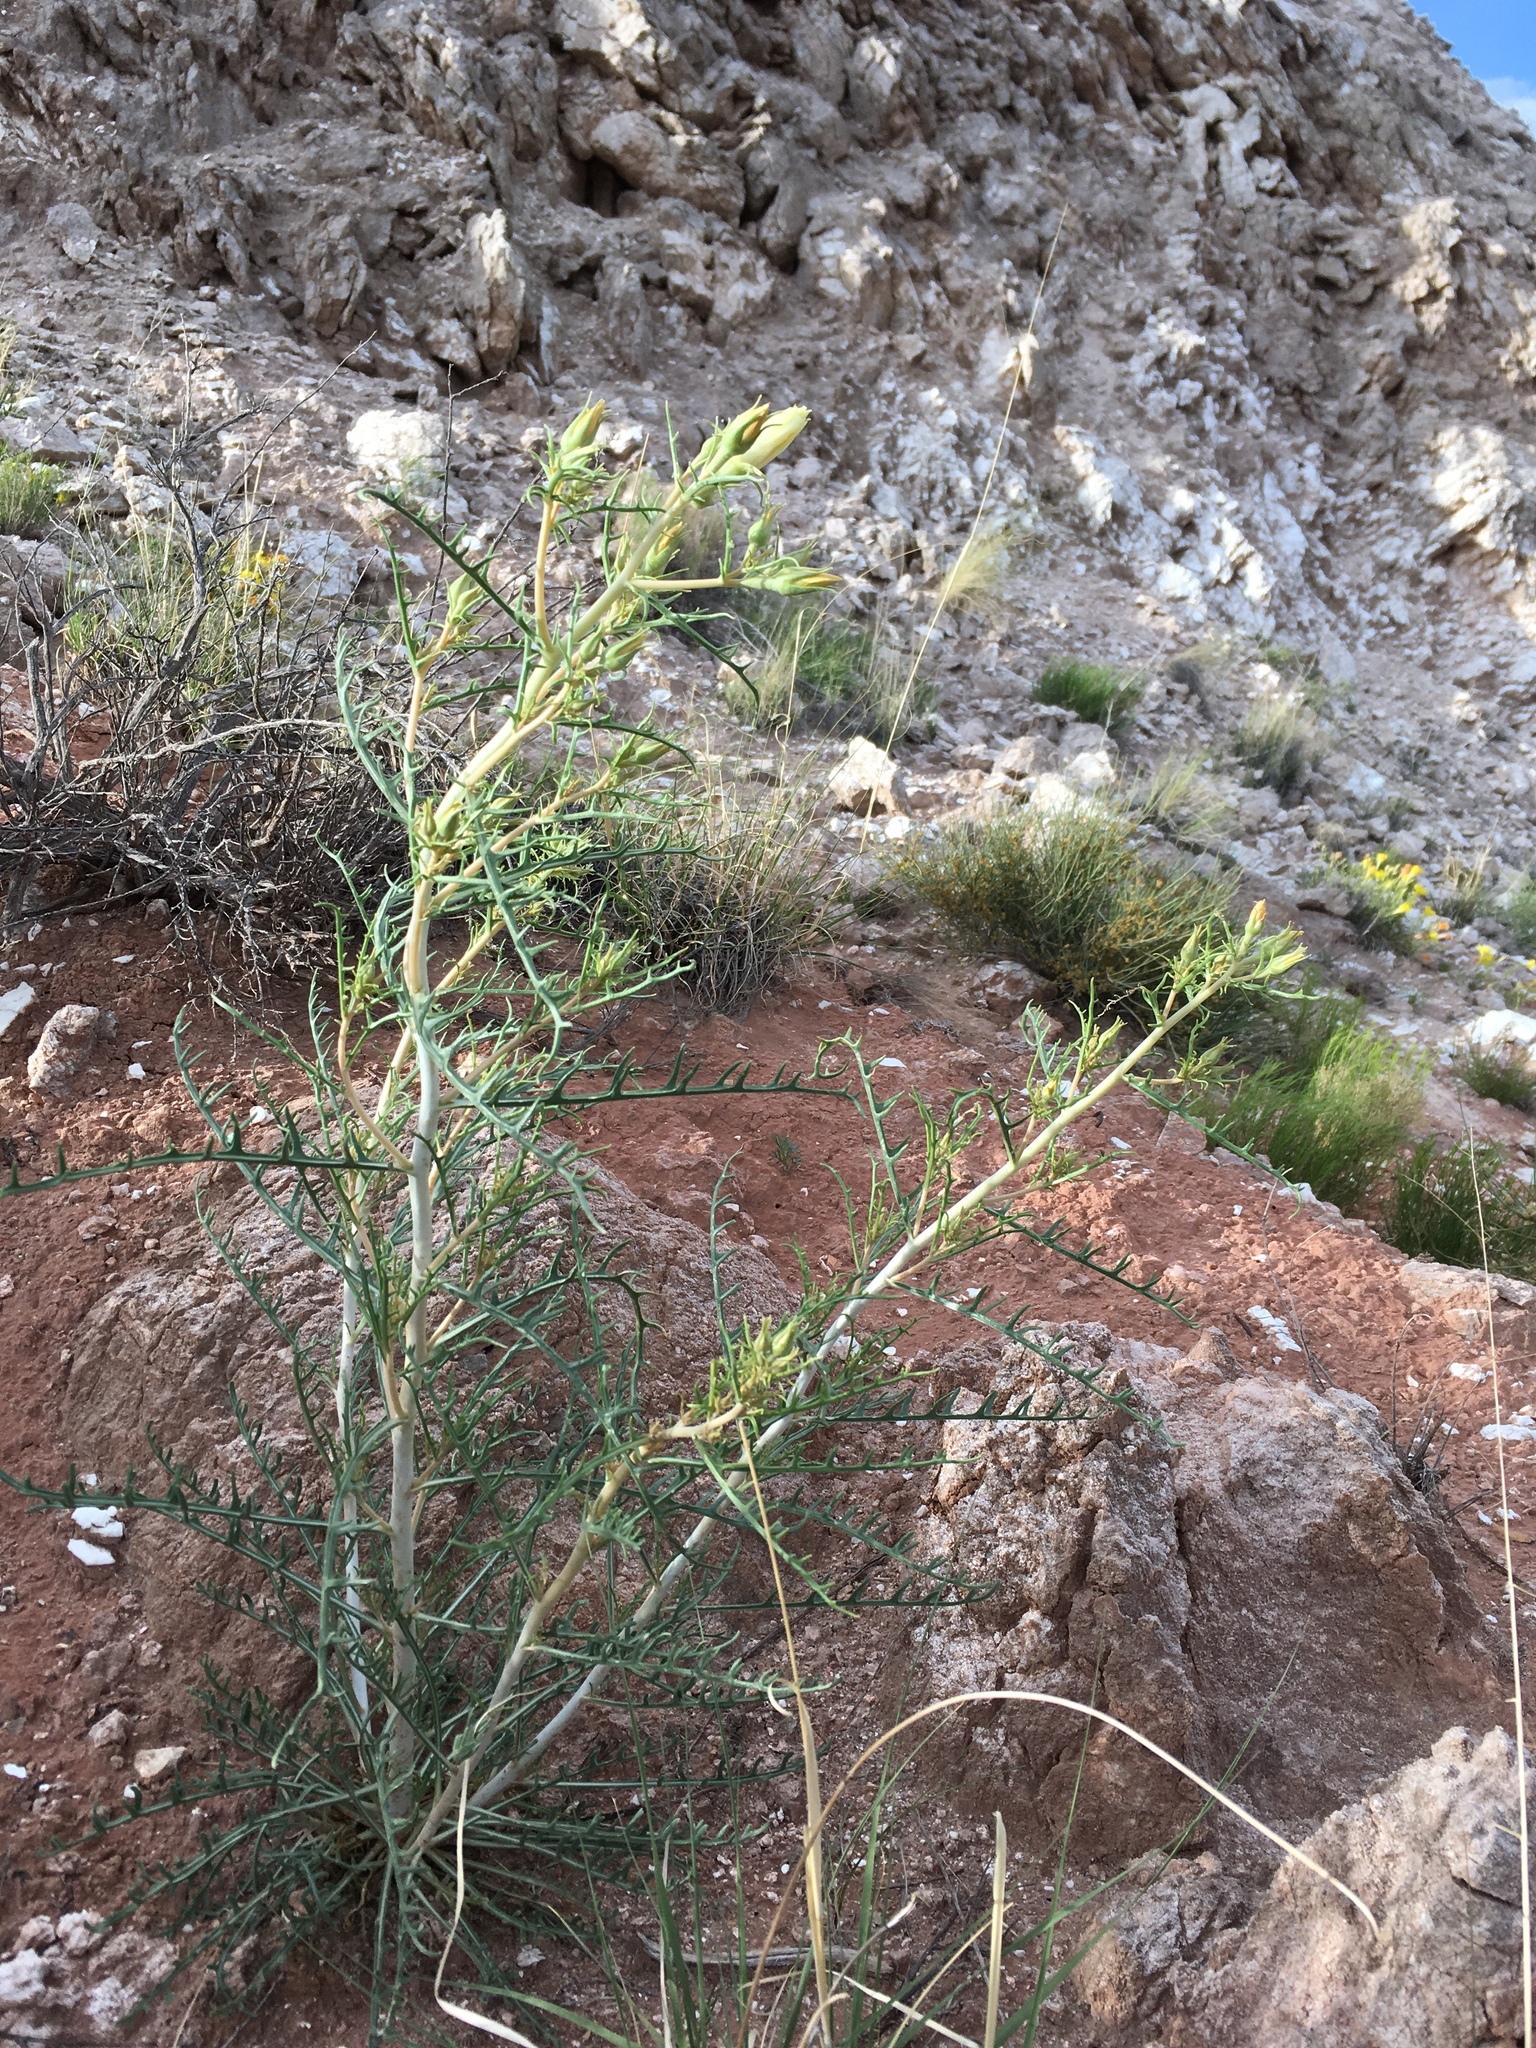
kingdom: Plantae
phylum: Tracheophyta
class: Magnoliopsida
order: Cornales
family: Loasaceae
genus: Mentzelia
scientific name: Mentzelia todiltoensis
